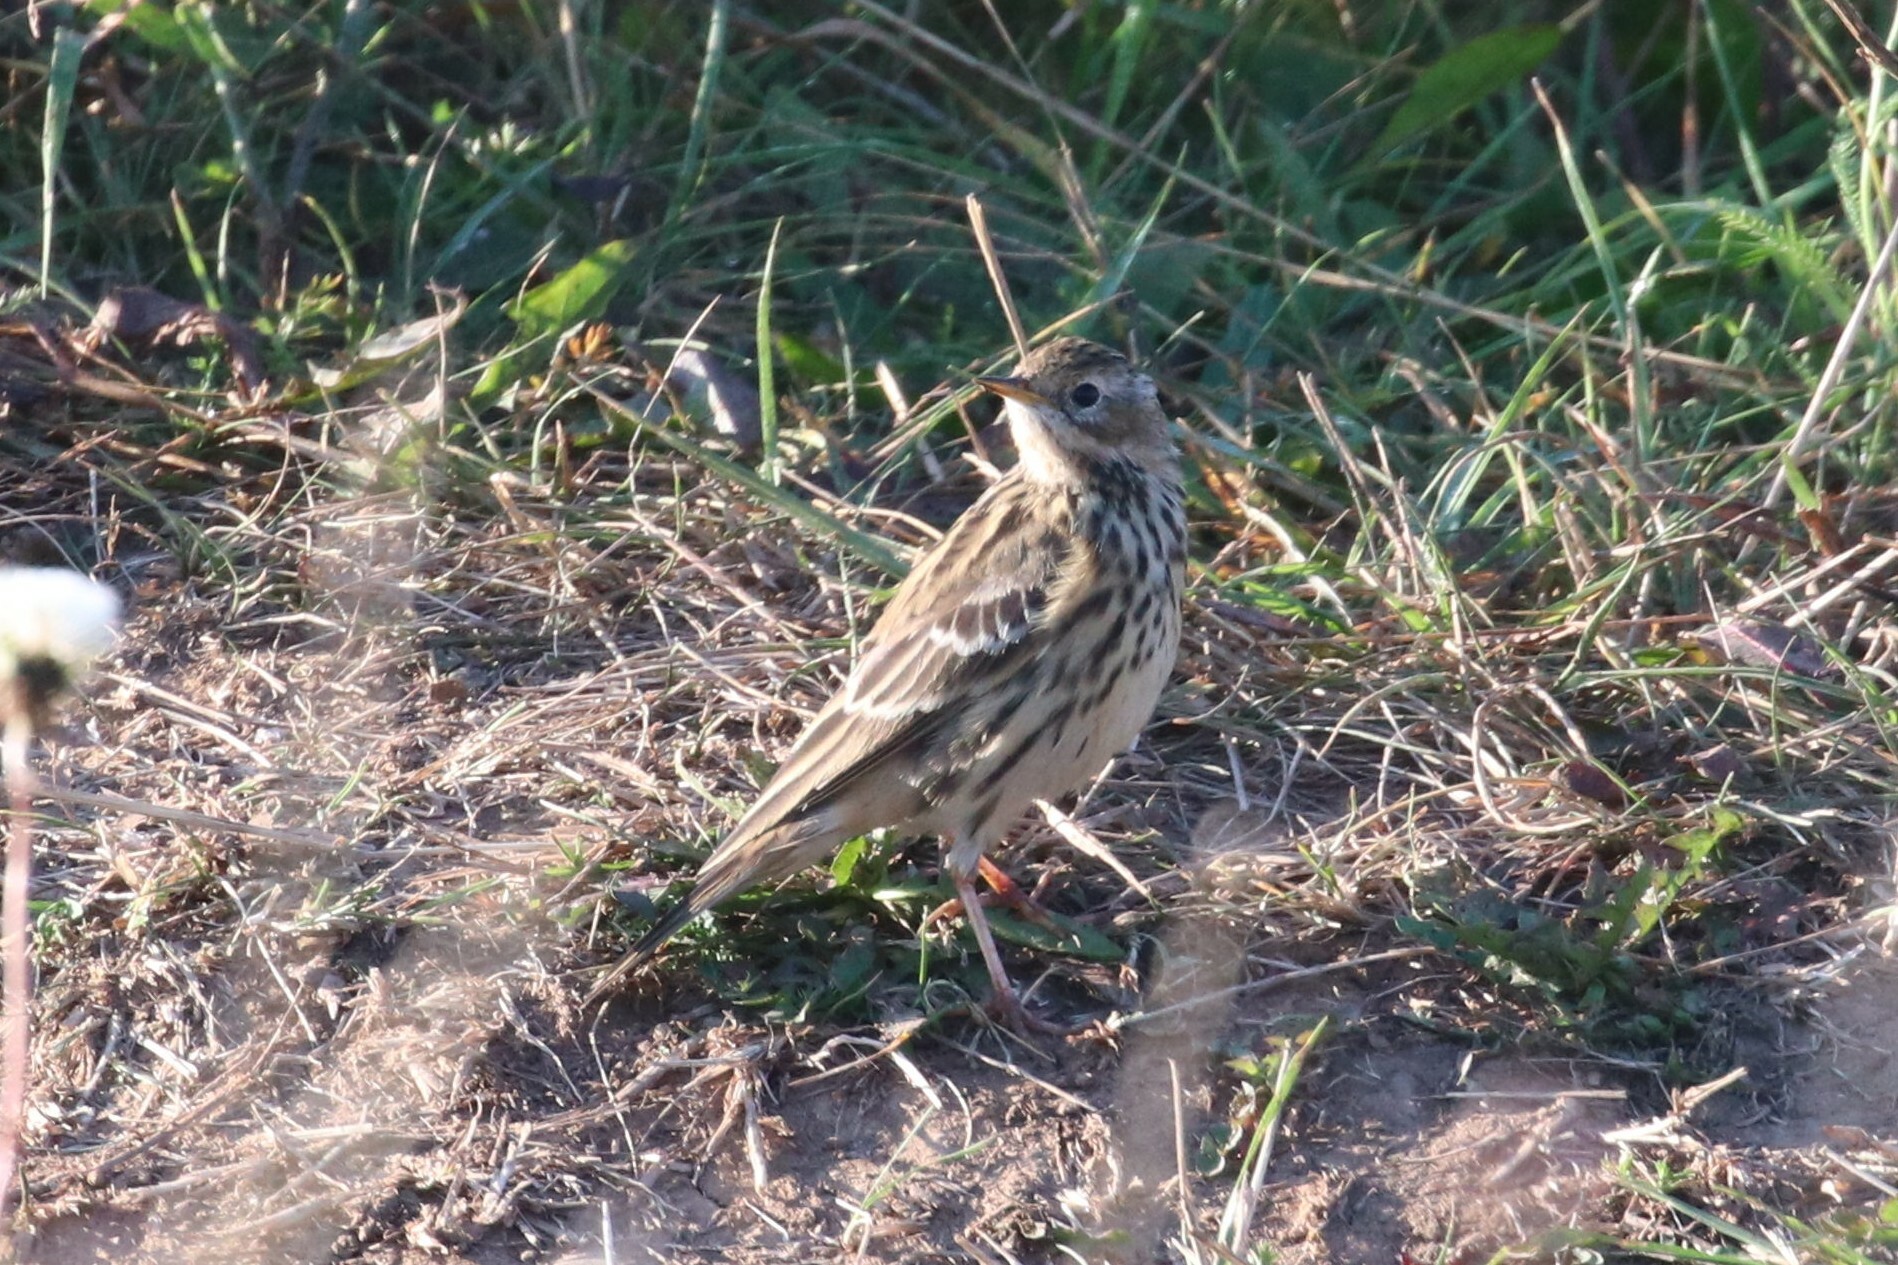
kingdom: Animalia
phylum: Chordata
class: Aves
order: Passeriformes
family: Motacillidae
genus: Anthus
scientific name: Anthus cervinus
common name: Red-throated pipit
